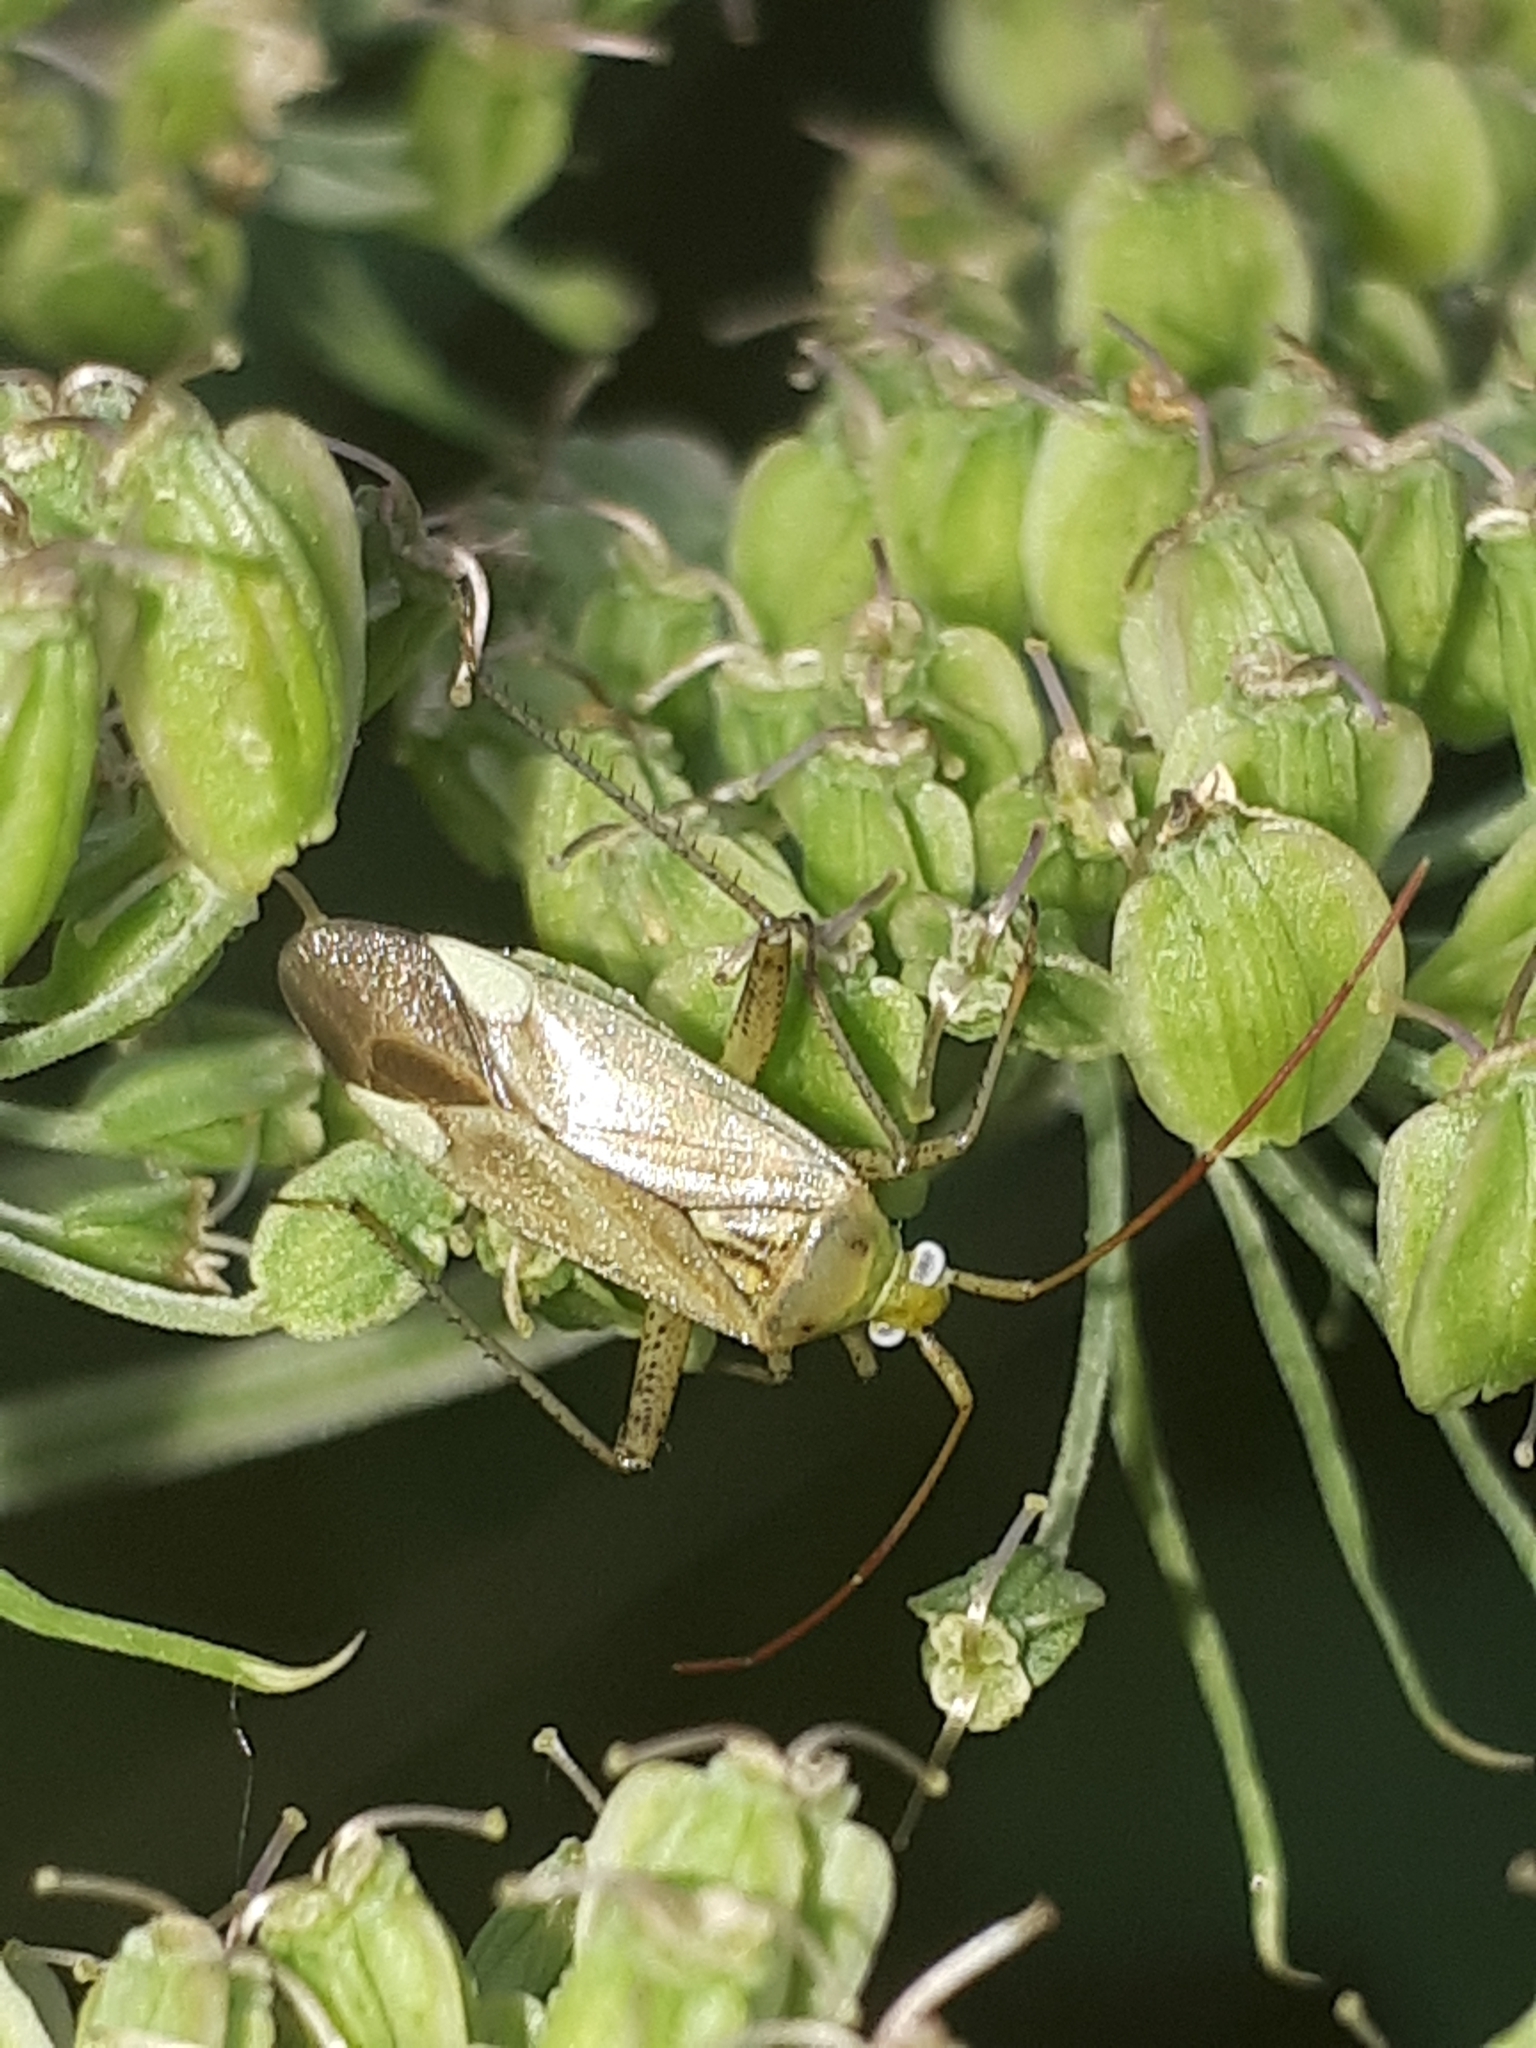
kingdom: Animalia
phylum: Arthropoda
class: Insecta
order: Hemiptera
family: Miridae
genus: Adelphocoris
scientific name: Adelphocoris lineolatus
